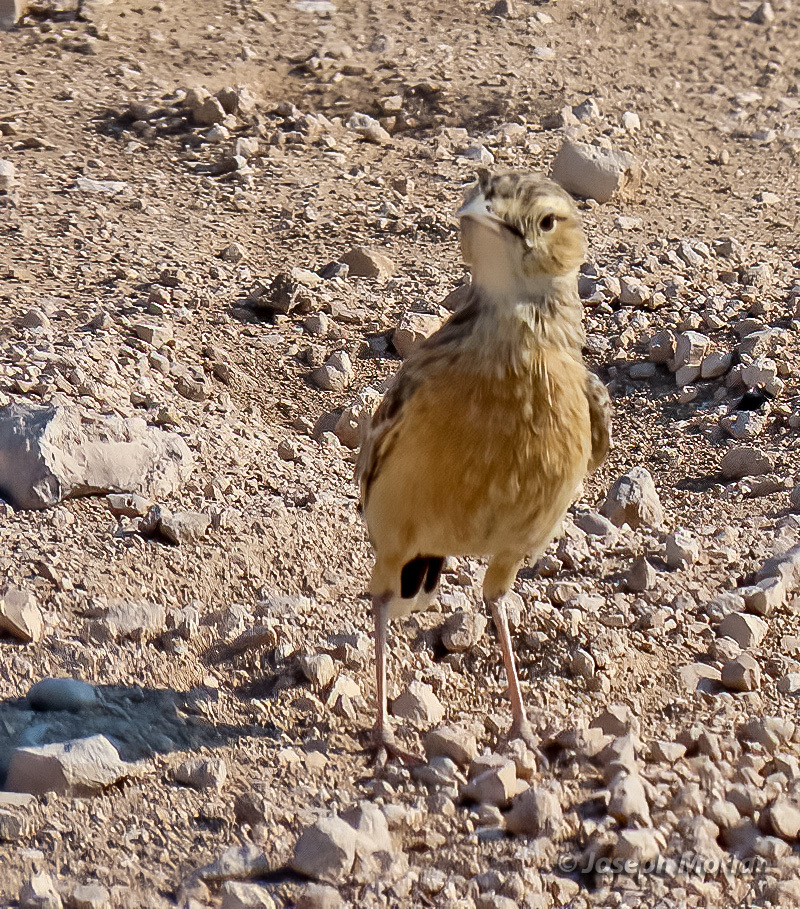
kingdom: Animalia
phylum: Chordata
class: Aves
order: Passeriformes
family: Alaudidae
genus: Chersomanes
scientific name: Chersomanes albofasciata
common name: Spike-heeled lark
